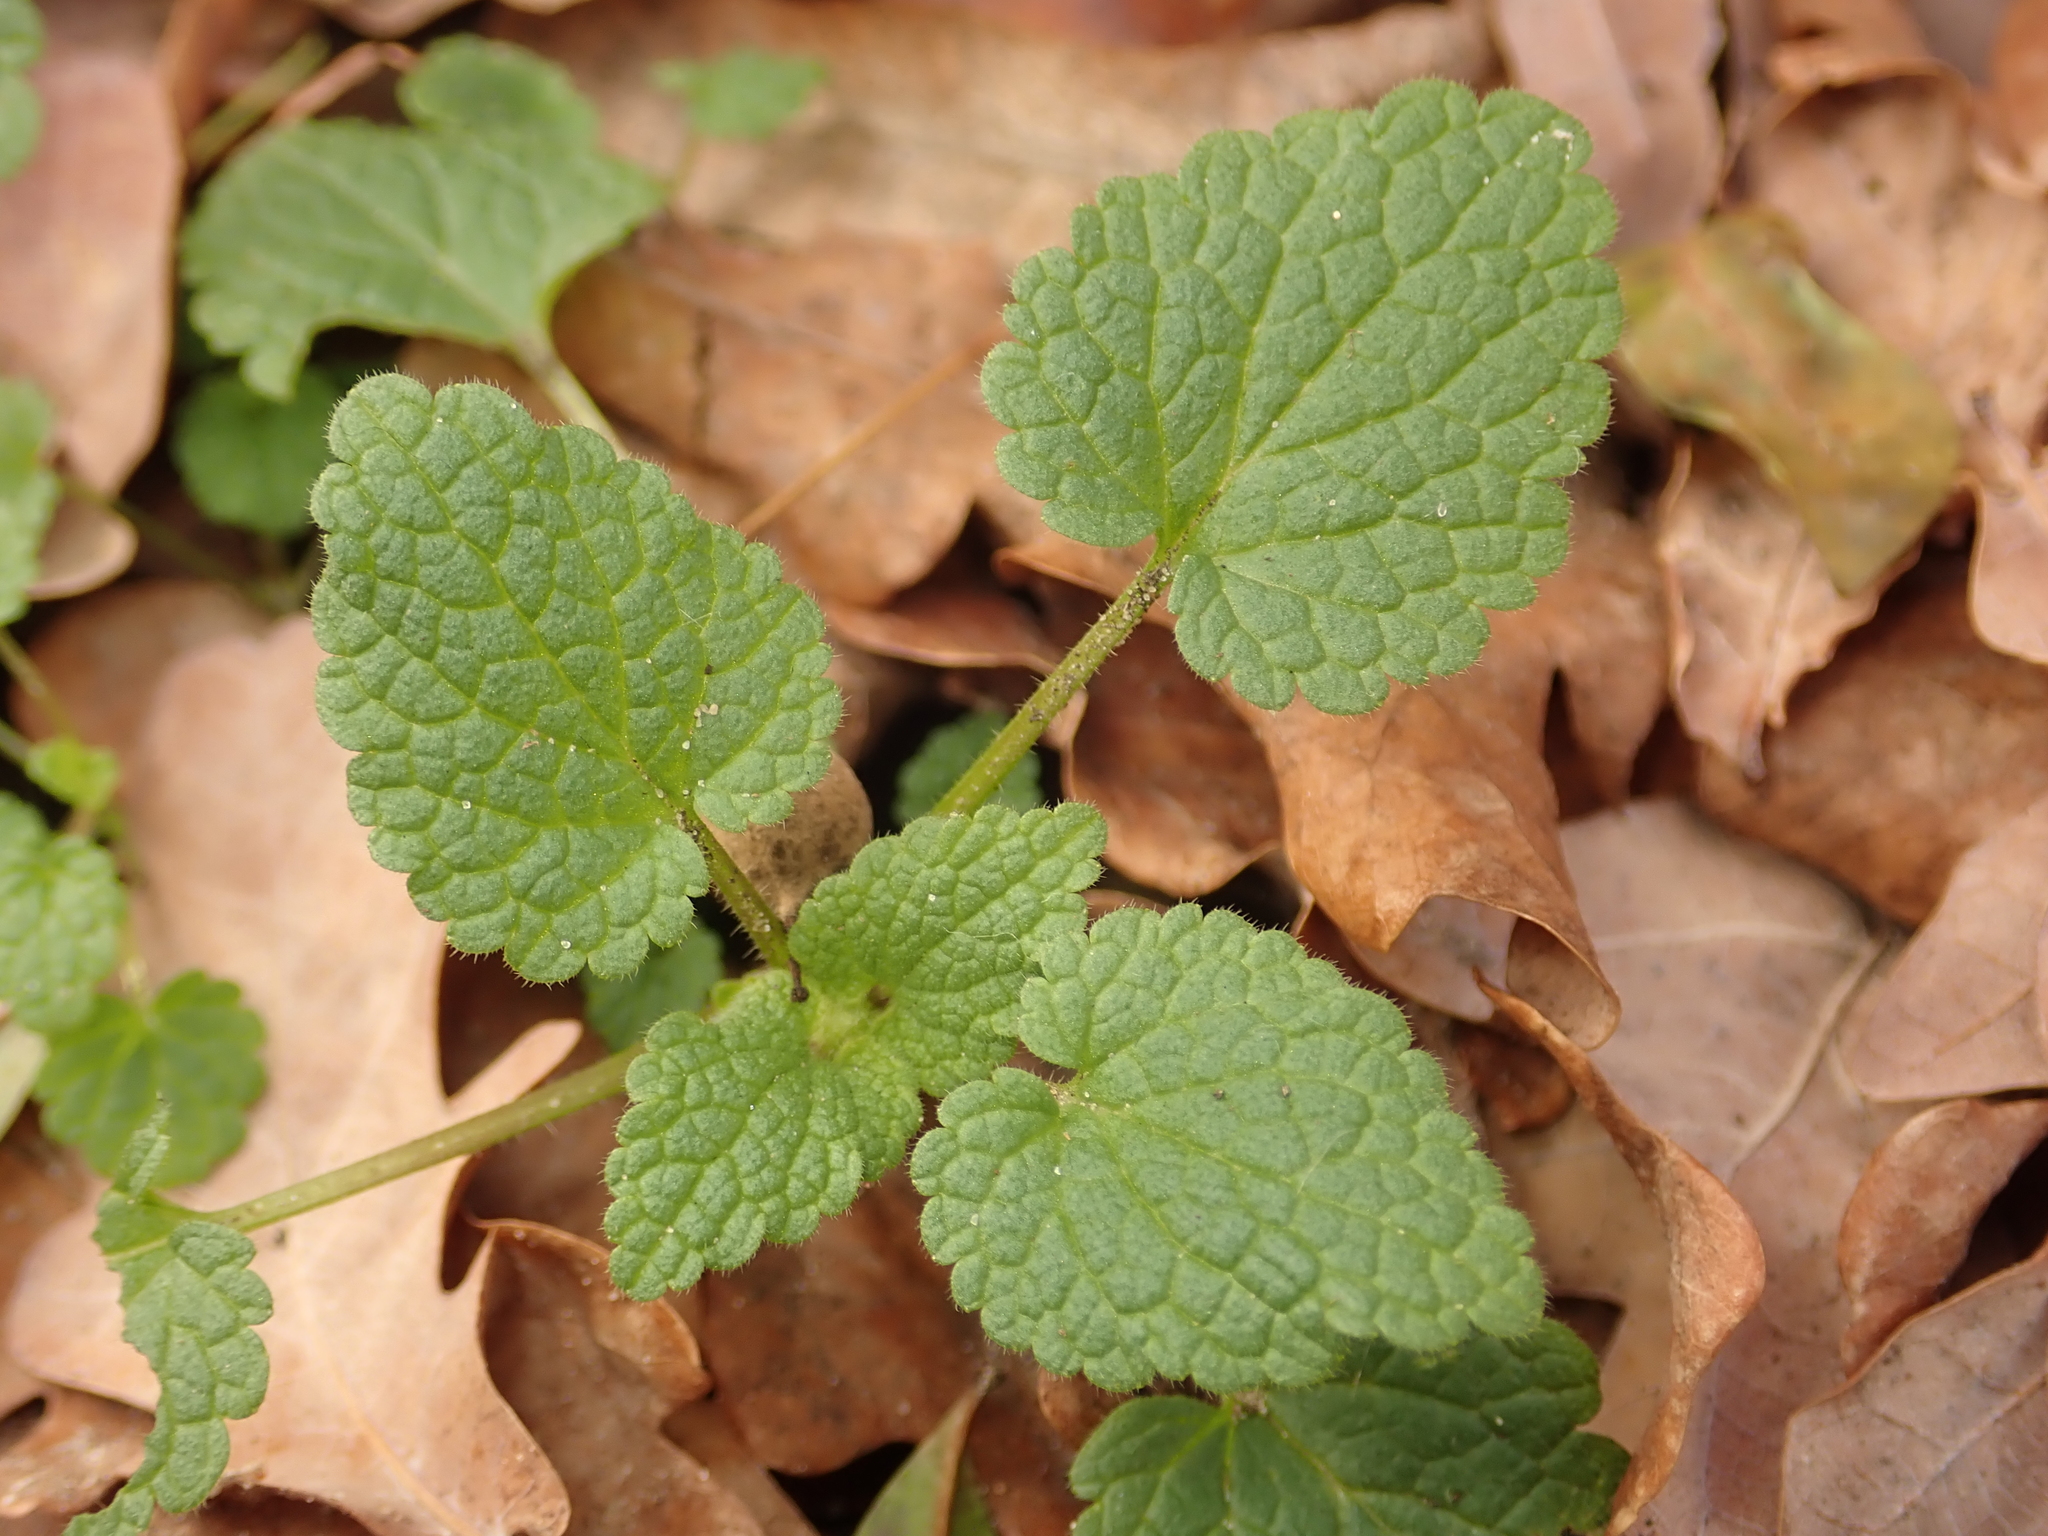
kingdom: Plantae
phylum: Tracheophyta
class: Magnoliopsida
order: Lamiales
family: Lamiaceae
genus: Lamium
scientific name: Lamium purpureum
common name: Red dead-nettle
